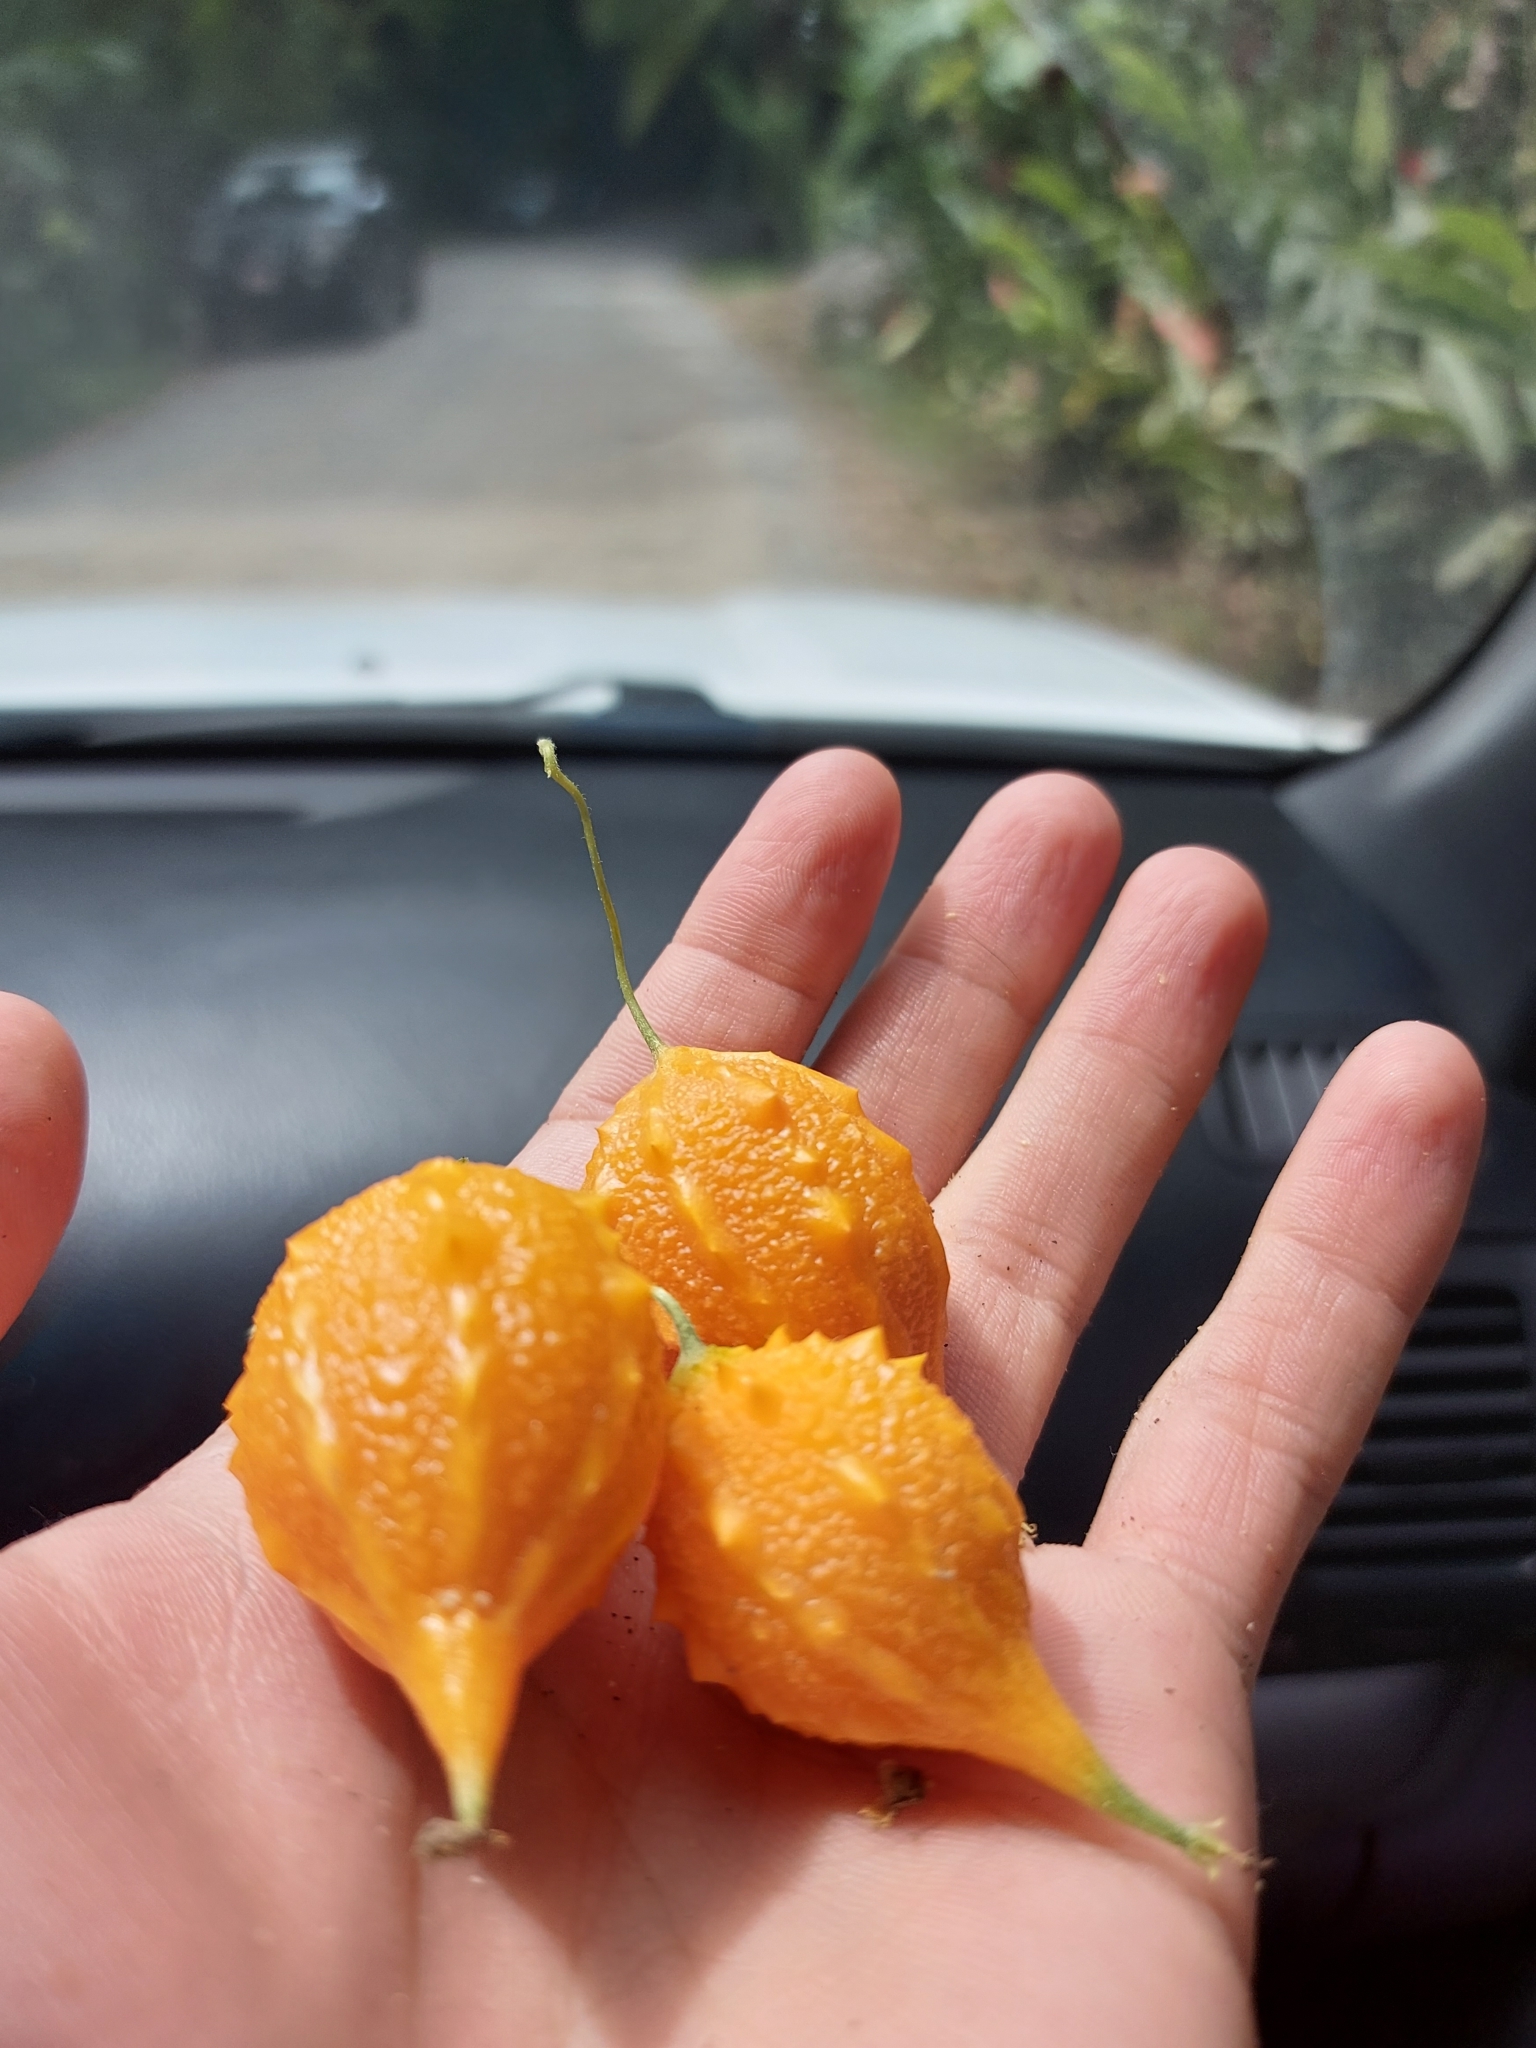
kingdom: Plantae
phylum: Tracheophyta
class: Magnoliopsida
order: Cucurbitales
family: Cucurbitaceae
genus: Momordica
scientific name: Momordica charantia
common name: Balsampear
